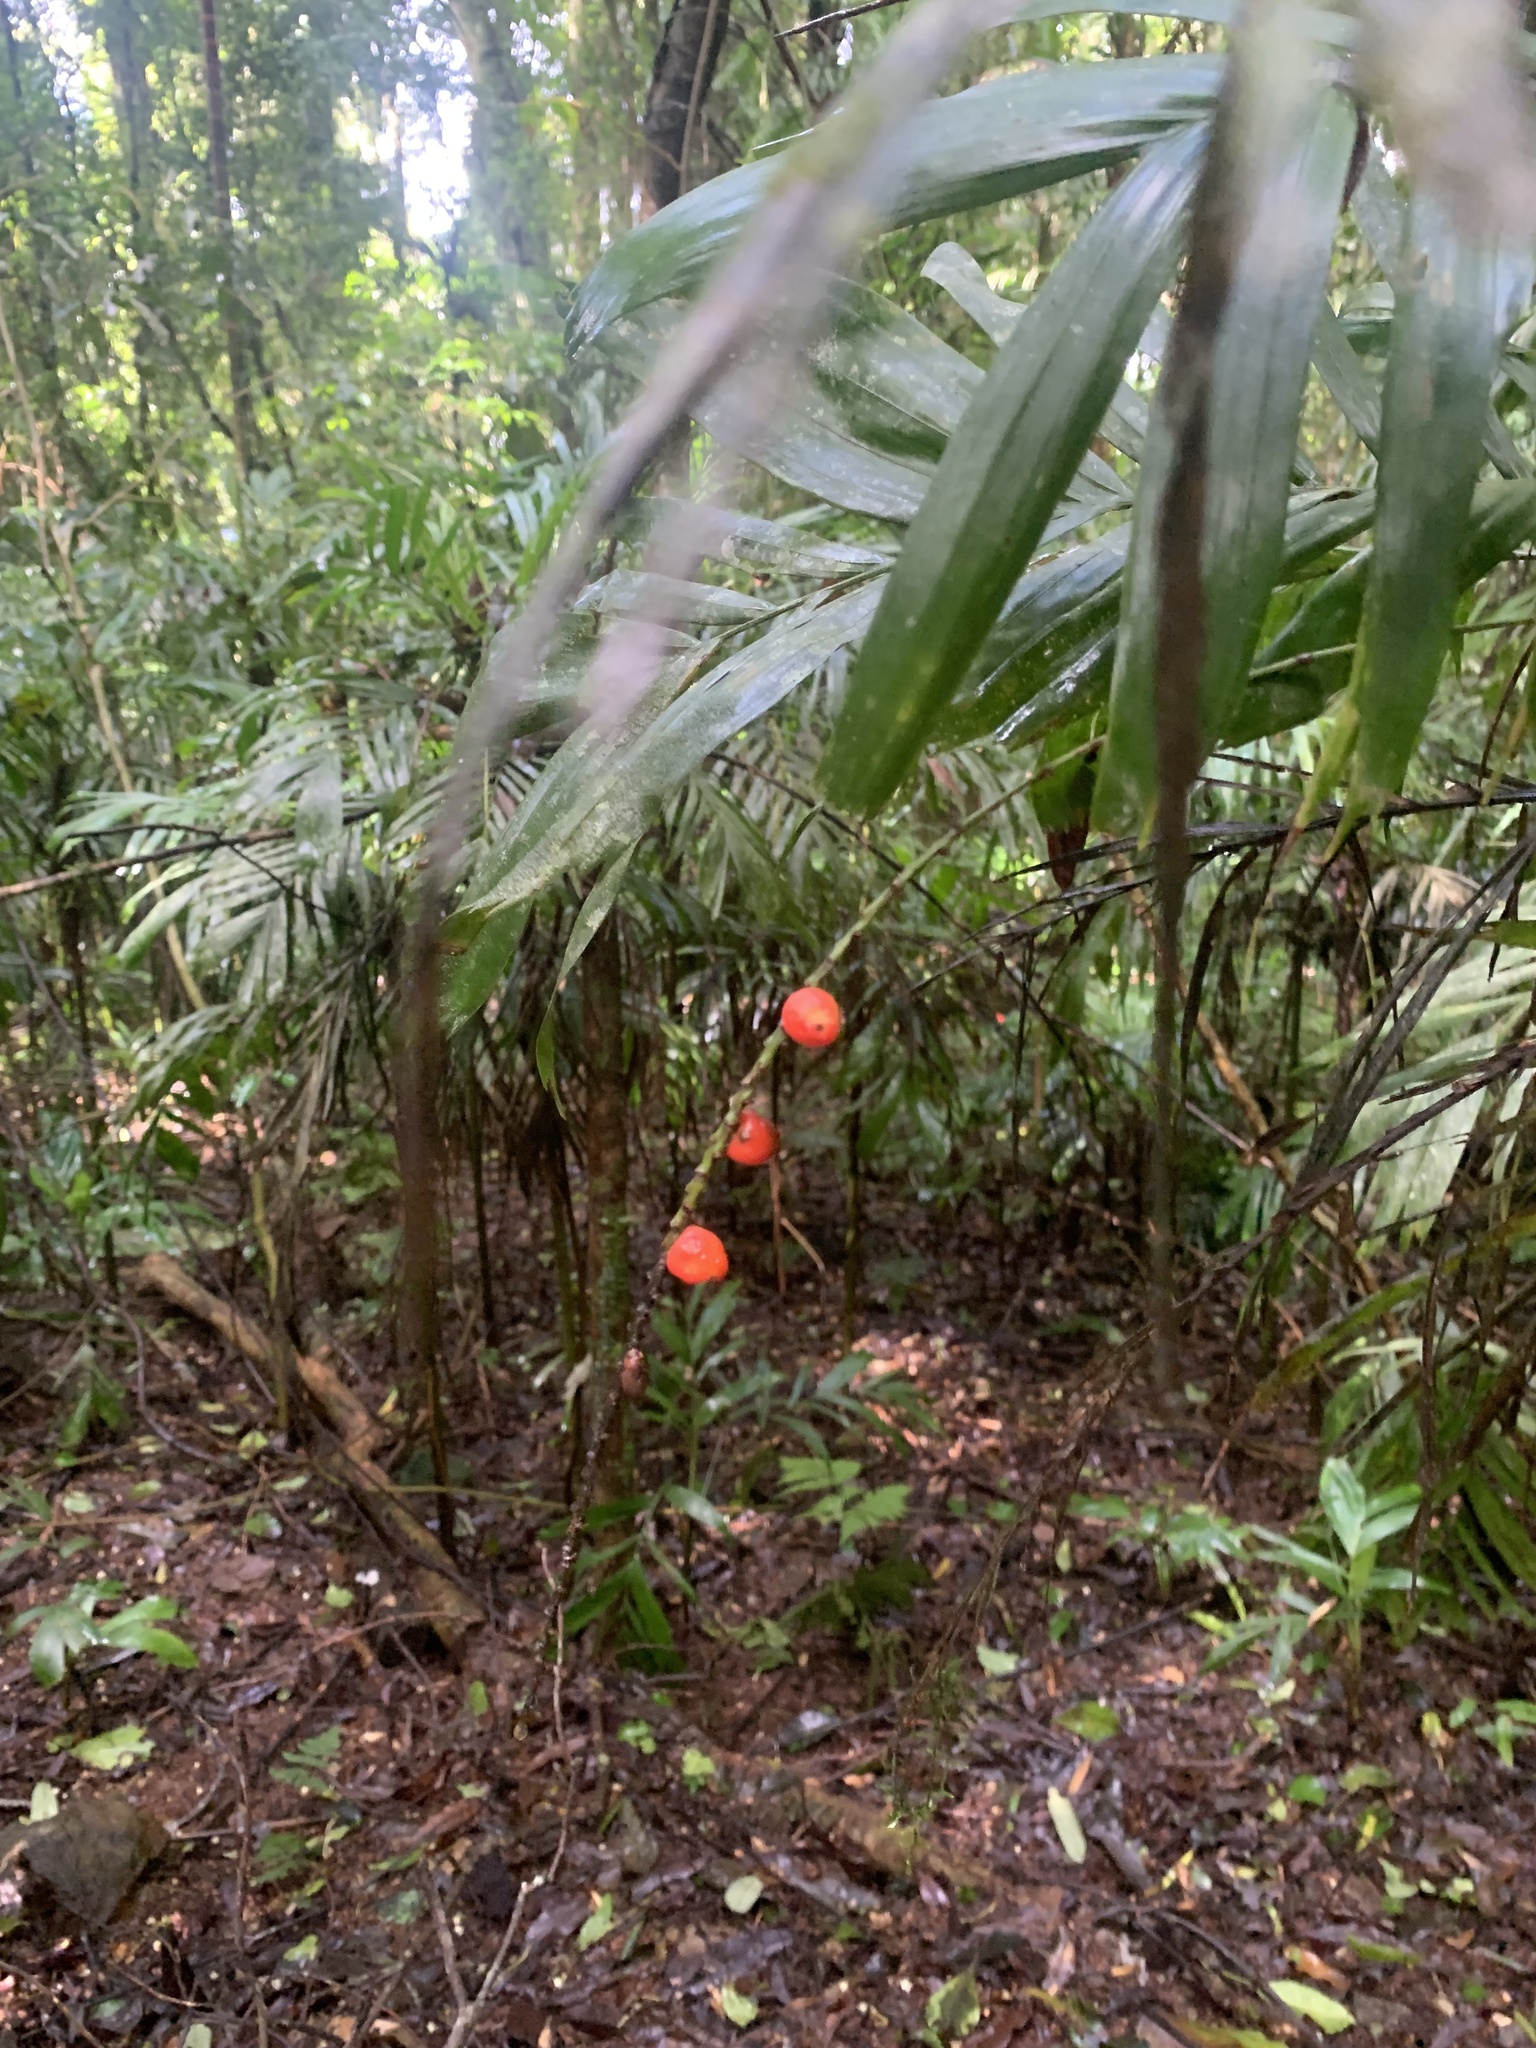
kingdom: Plantae
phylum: Tracheophyta
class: Liliopsida
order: Arecales
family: Arecaceae
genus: Linospadix
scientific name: Linospadix monostachyus
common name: Walking-stick palm
